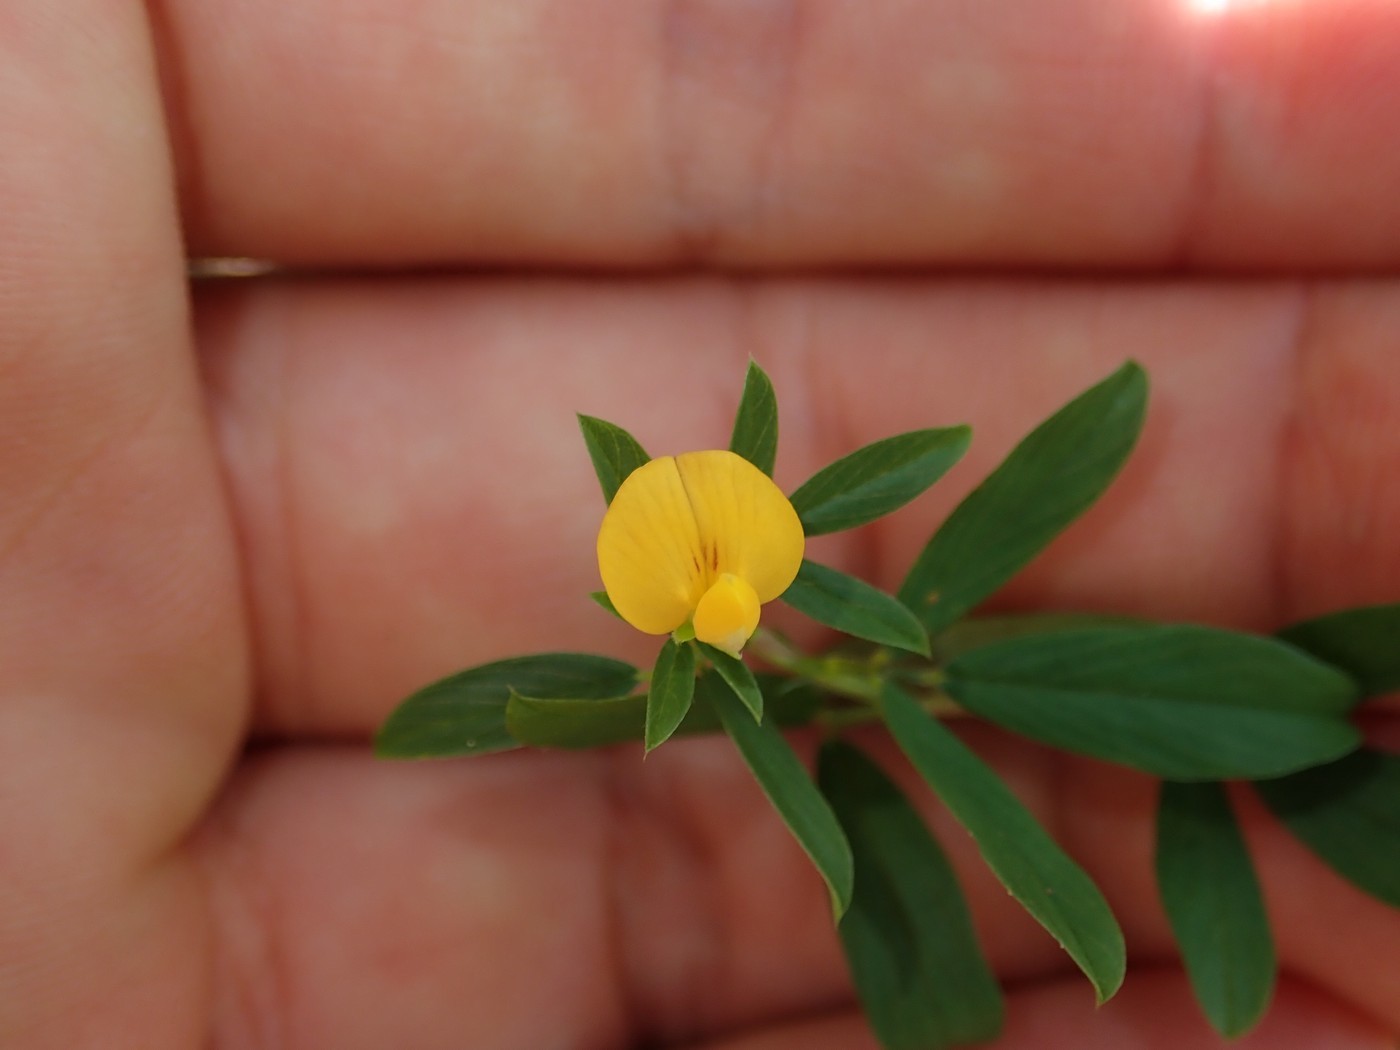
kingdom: Plantae
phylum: Tracheophyta
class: Magnoliopsida
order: Fabales
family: Fabaceae
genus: Stylosanthes
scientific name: Stylosanthes biflora
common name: Two-flower pencil-flower
